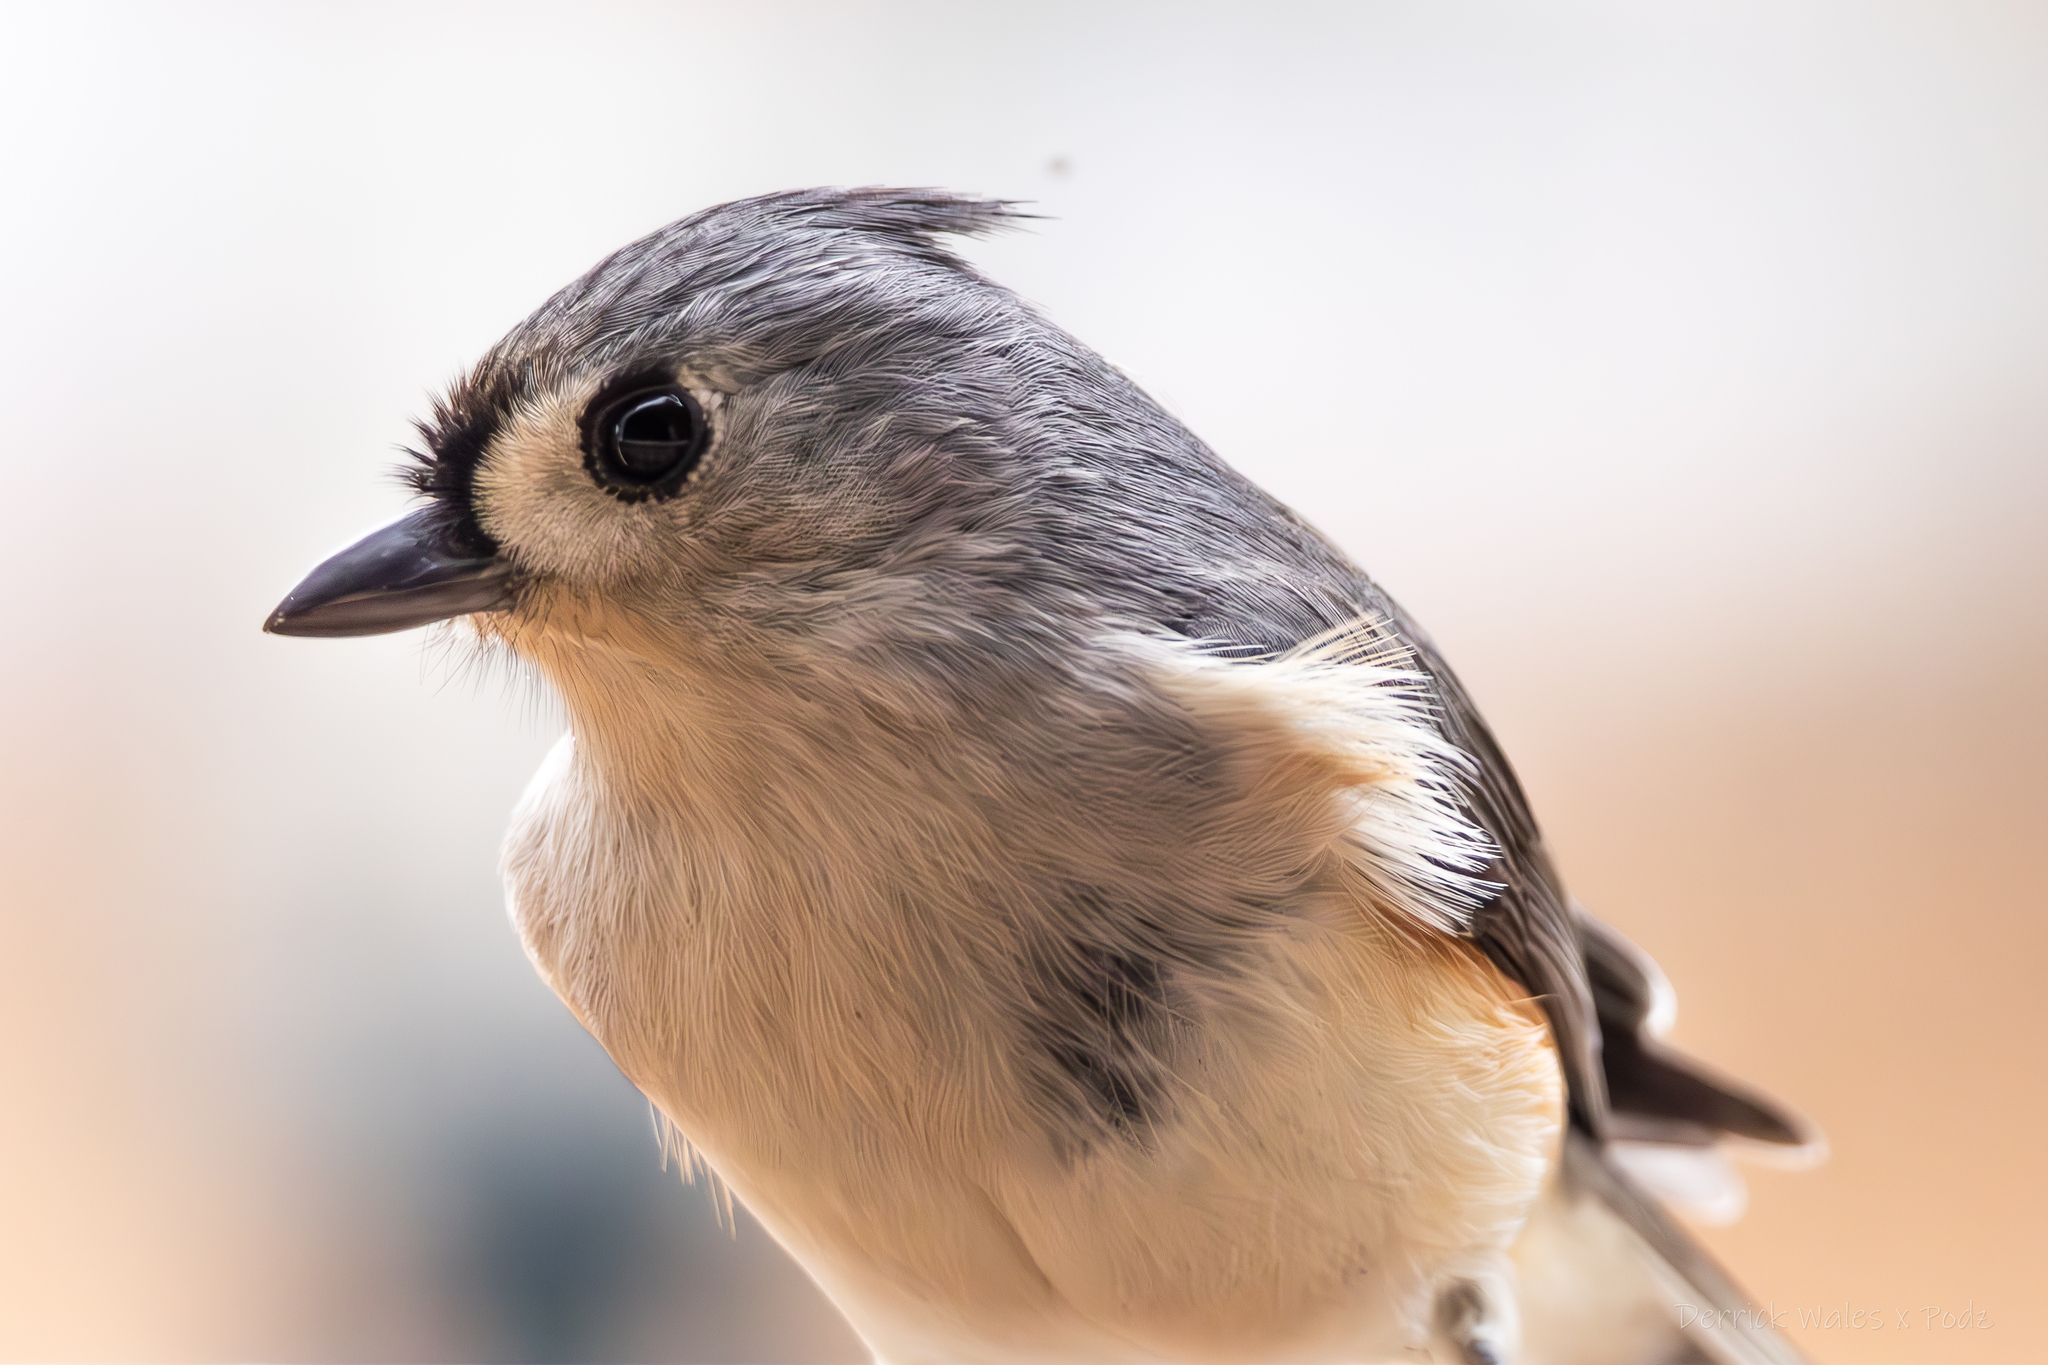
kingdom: Animalia
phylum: Chordata
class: Aves
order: Passeriformes
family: Paridae
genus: Baeolophus
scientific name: Baeolophus bicolor
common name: Tufted titmouse
